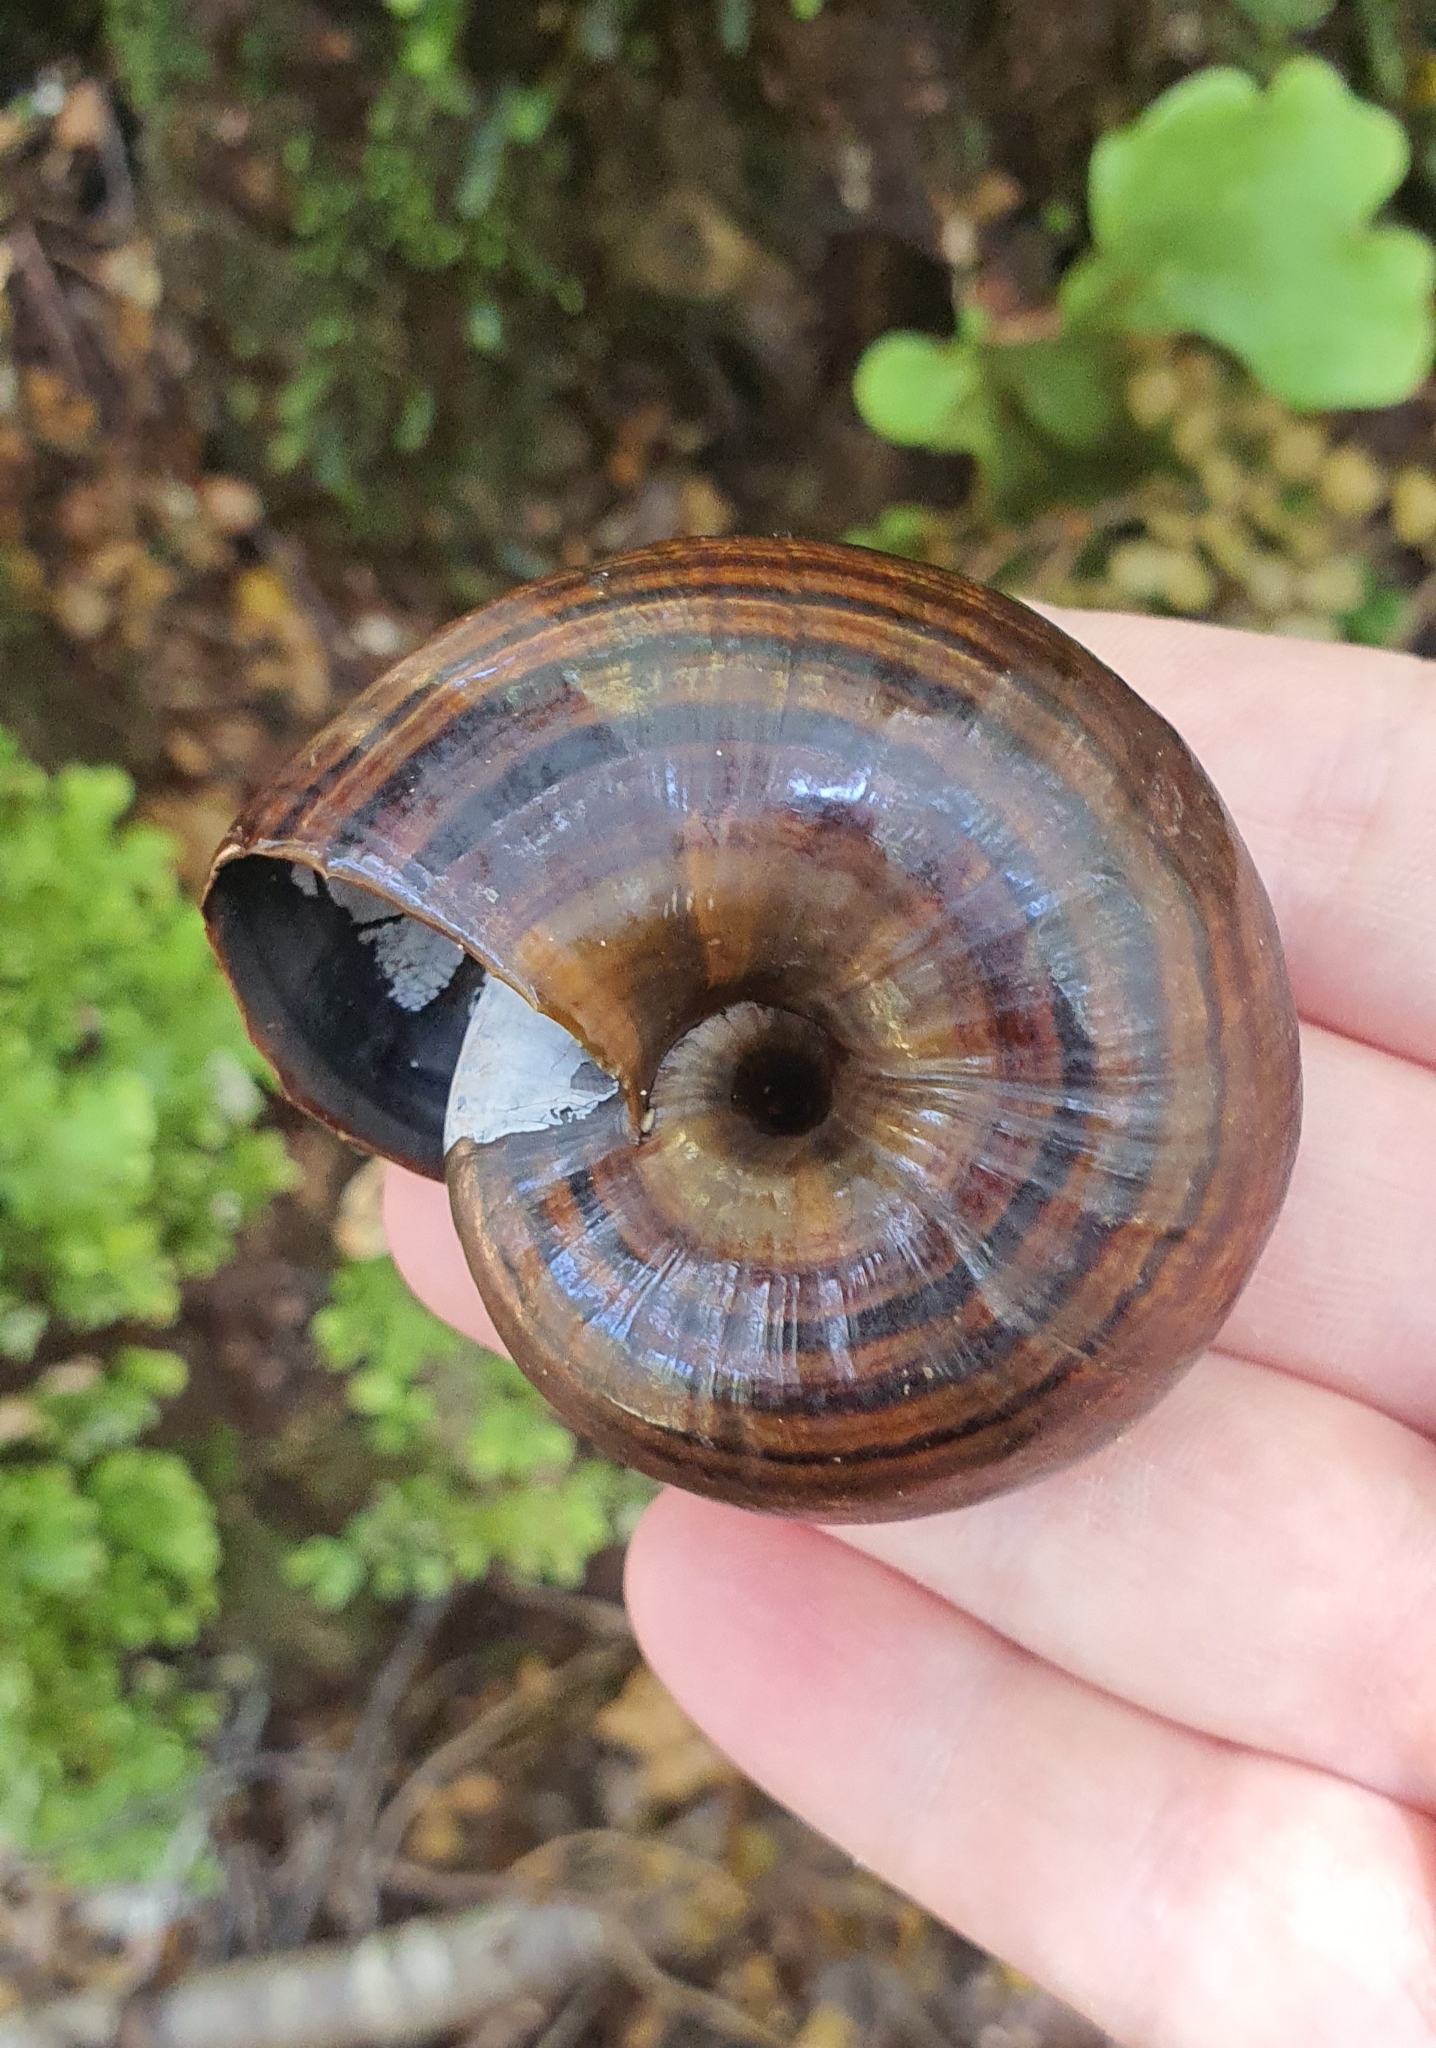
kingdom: Animalia
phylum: Mollusca
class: Gastropoda
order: Stylommatophora
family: Rhytididae
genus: Powelliphanta
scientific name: Powelliphanta hochstetteri
